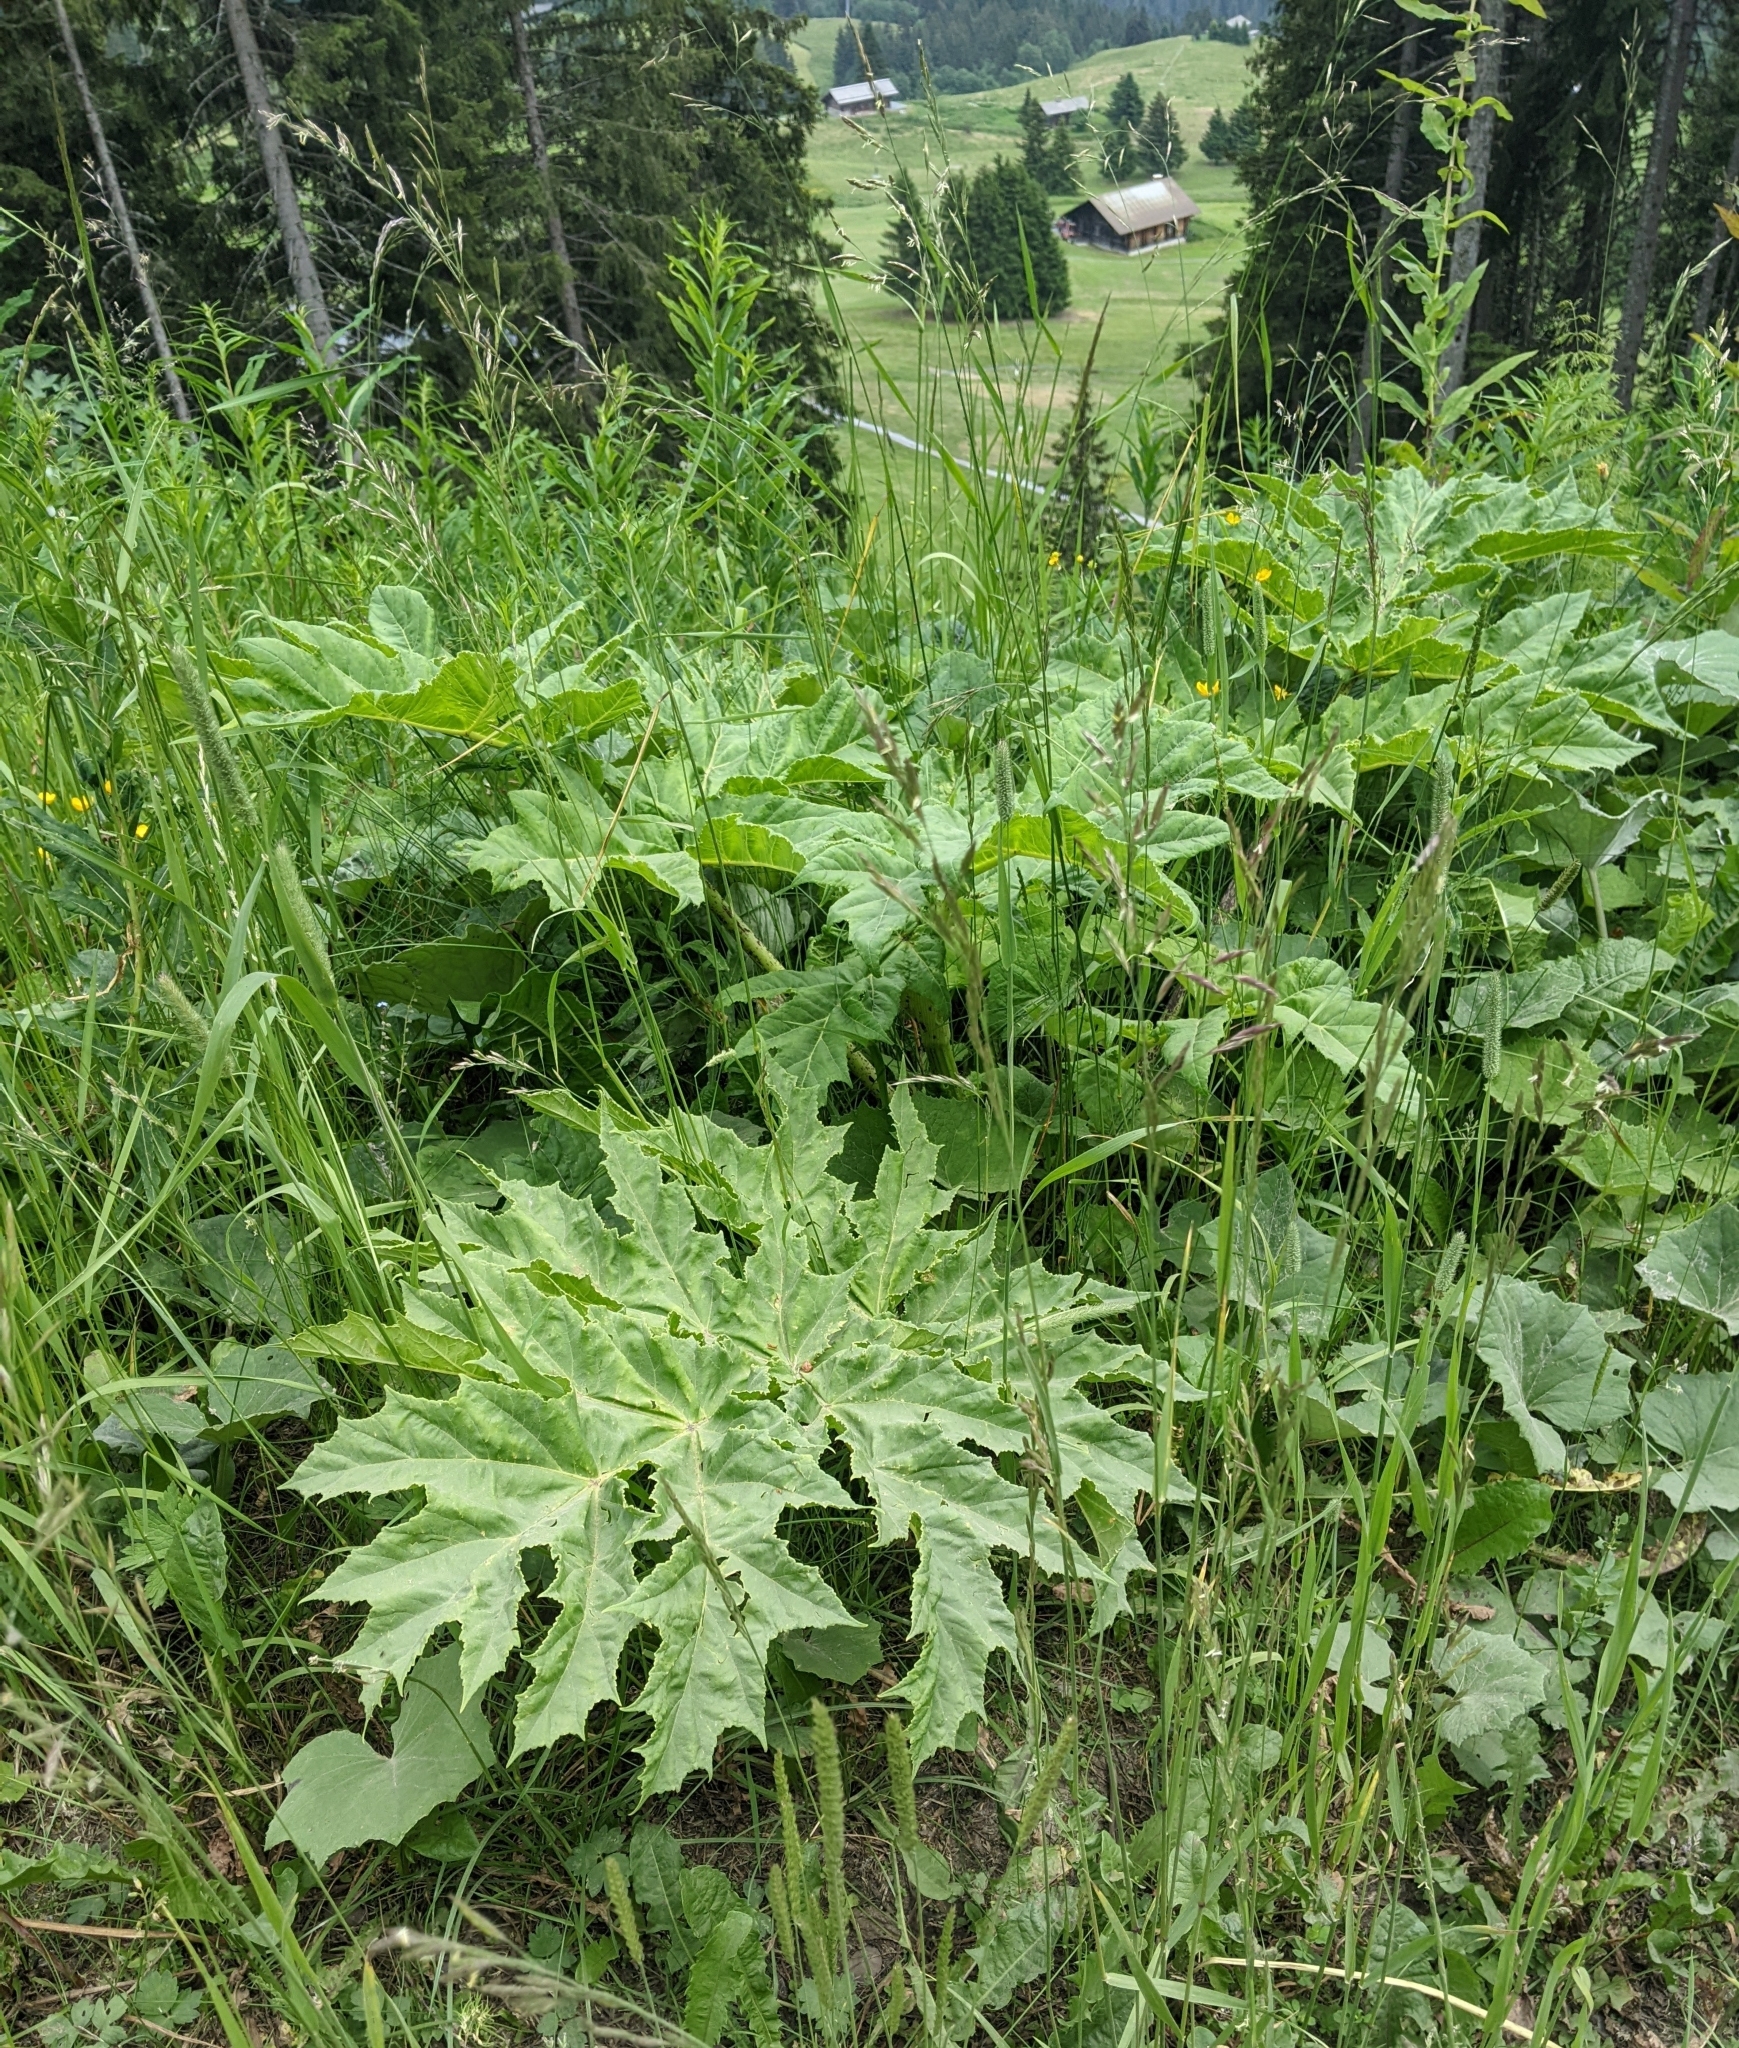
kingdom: Plantae
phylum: Tracheophyta
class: Magnoliopsida
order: Apiales
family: Apiaceae
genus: Heracleum
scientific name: Heracleum mantegazzianum
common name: Giant hogweed
